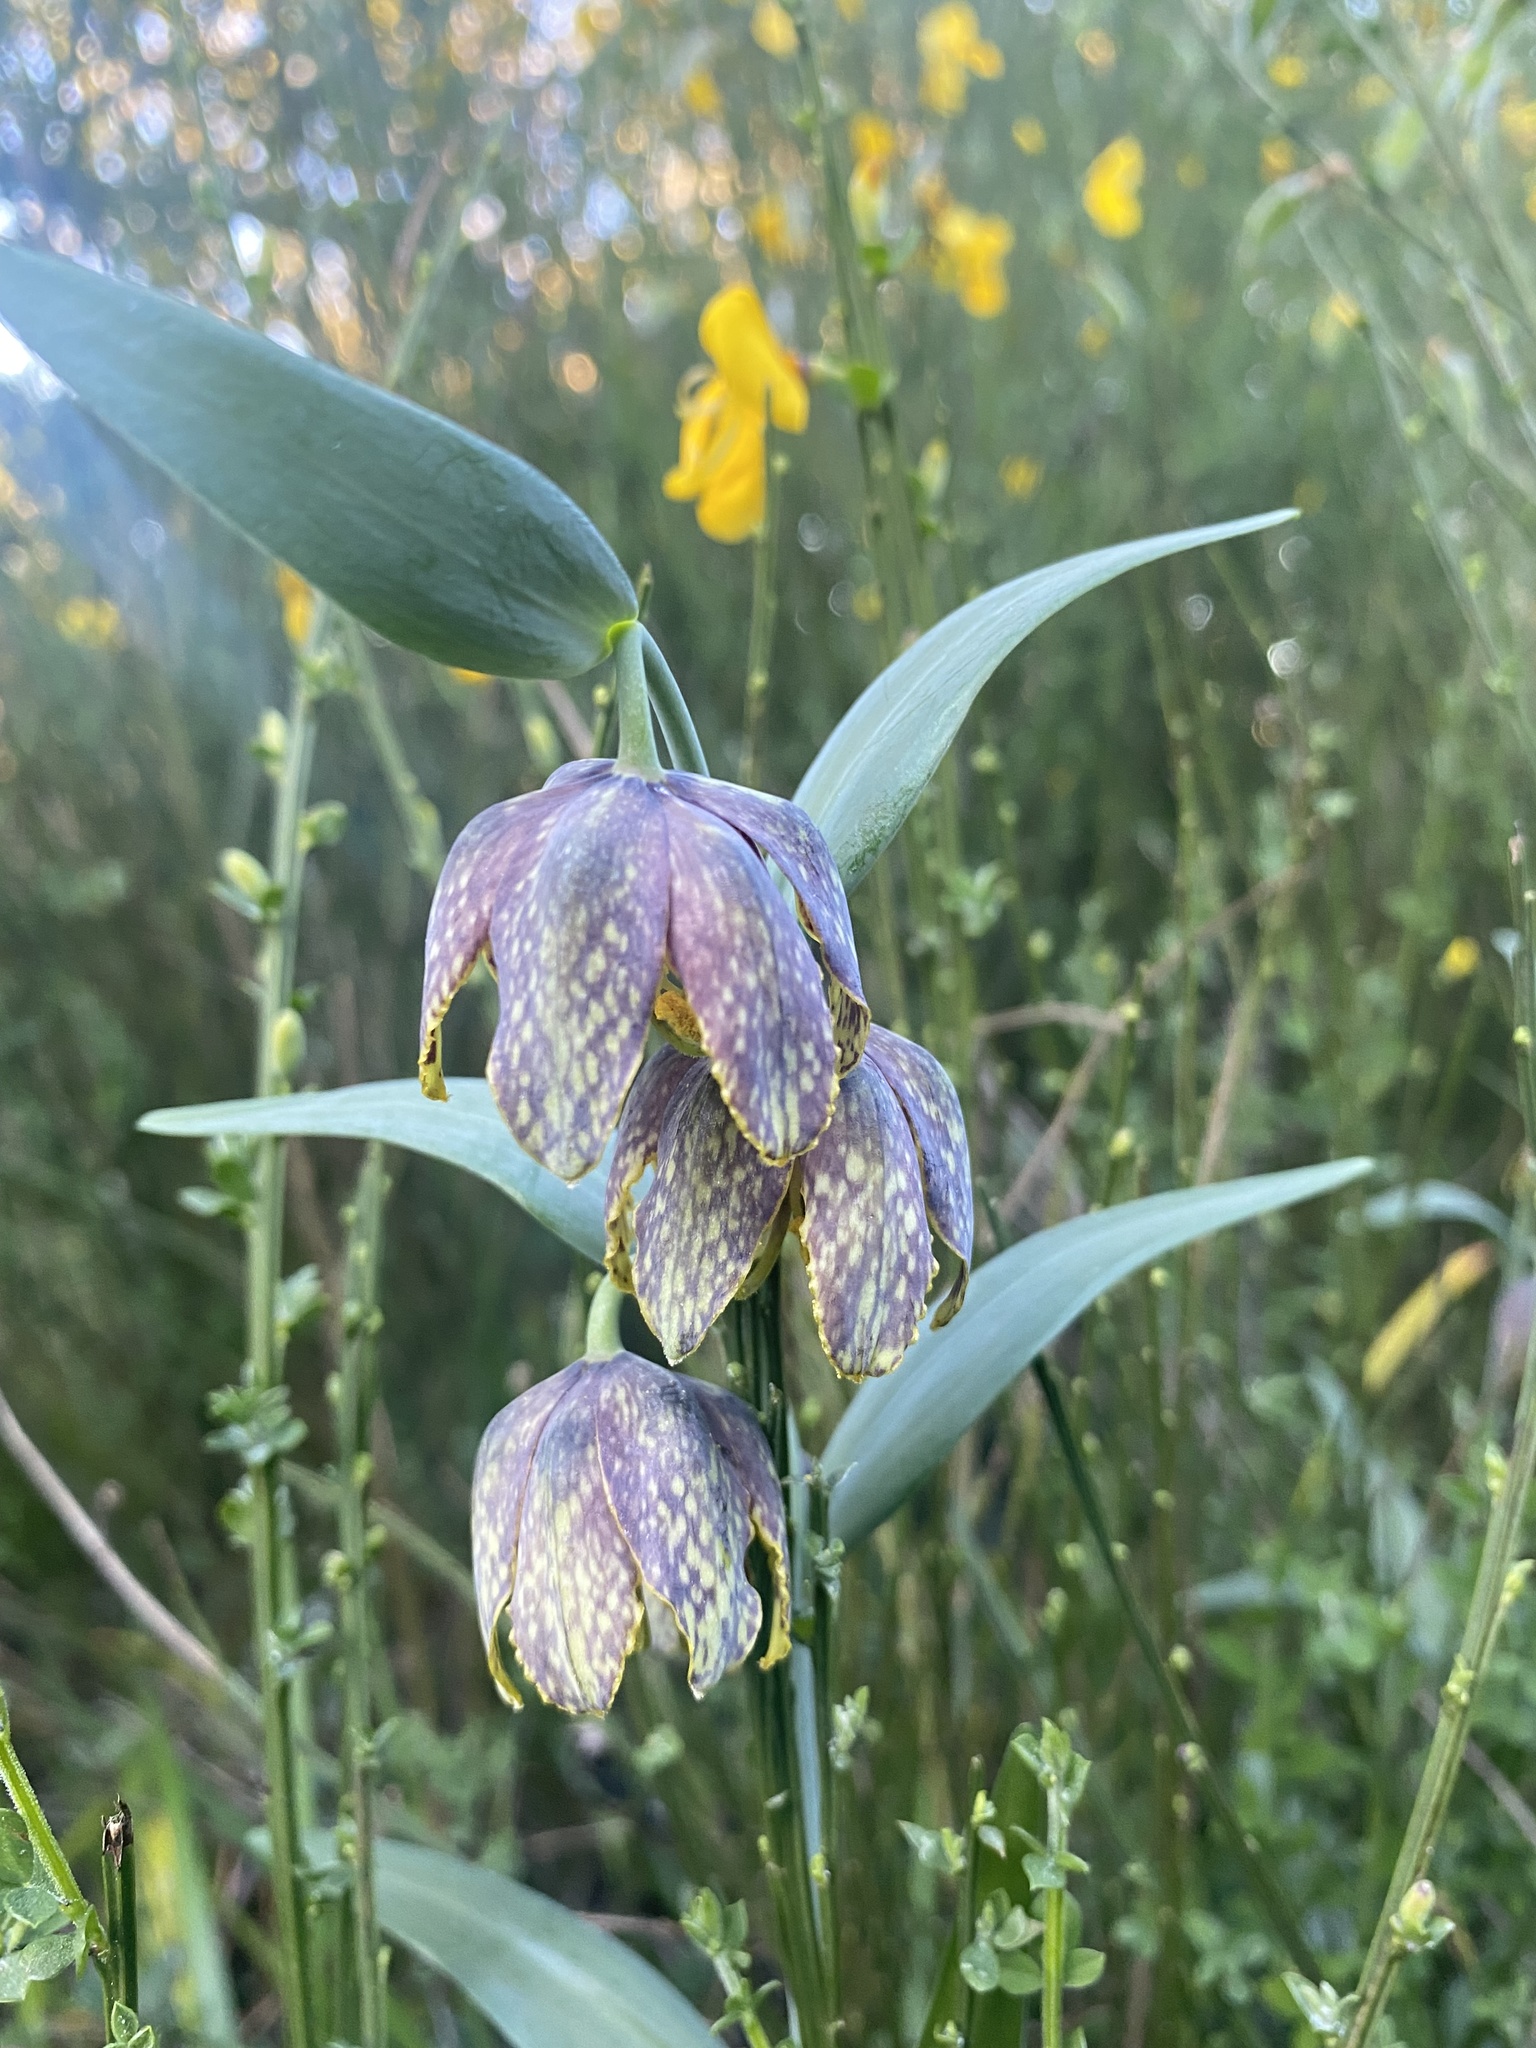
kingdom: Plantae
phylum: Tracheophyta
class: Liliopsida
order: Liliales
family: Liliaceae
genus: Fritillaria
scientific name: Fritillaria affinis
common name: Ojai fritillary
